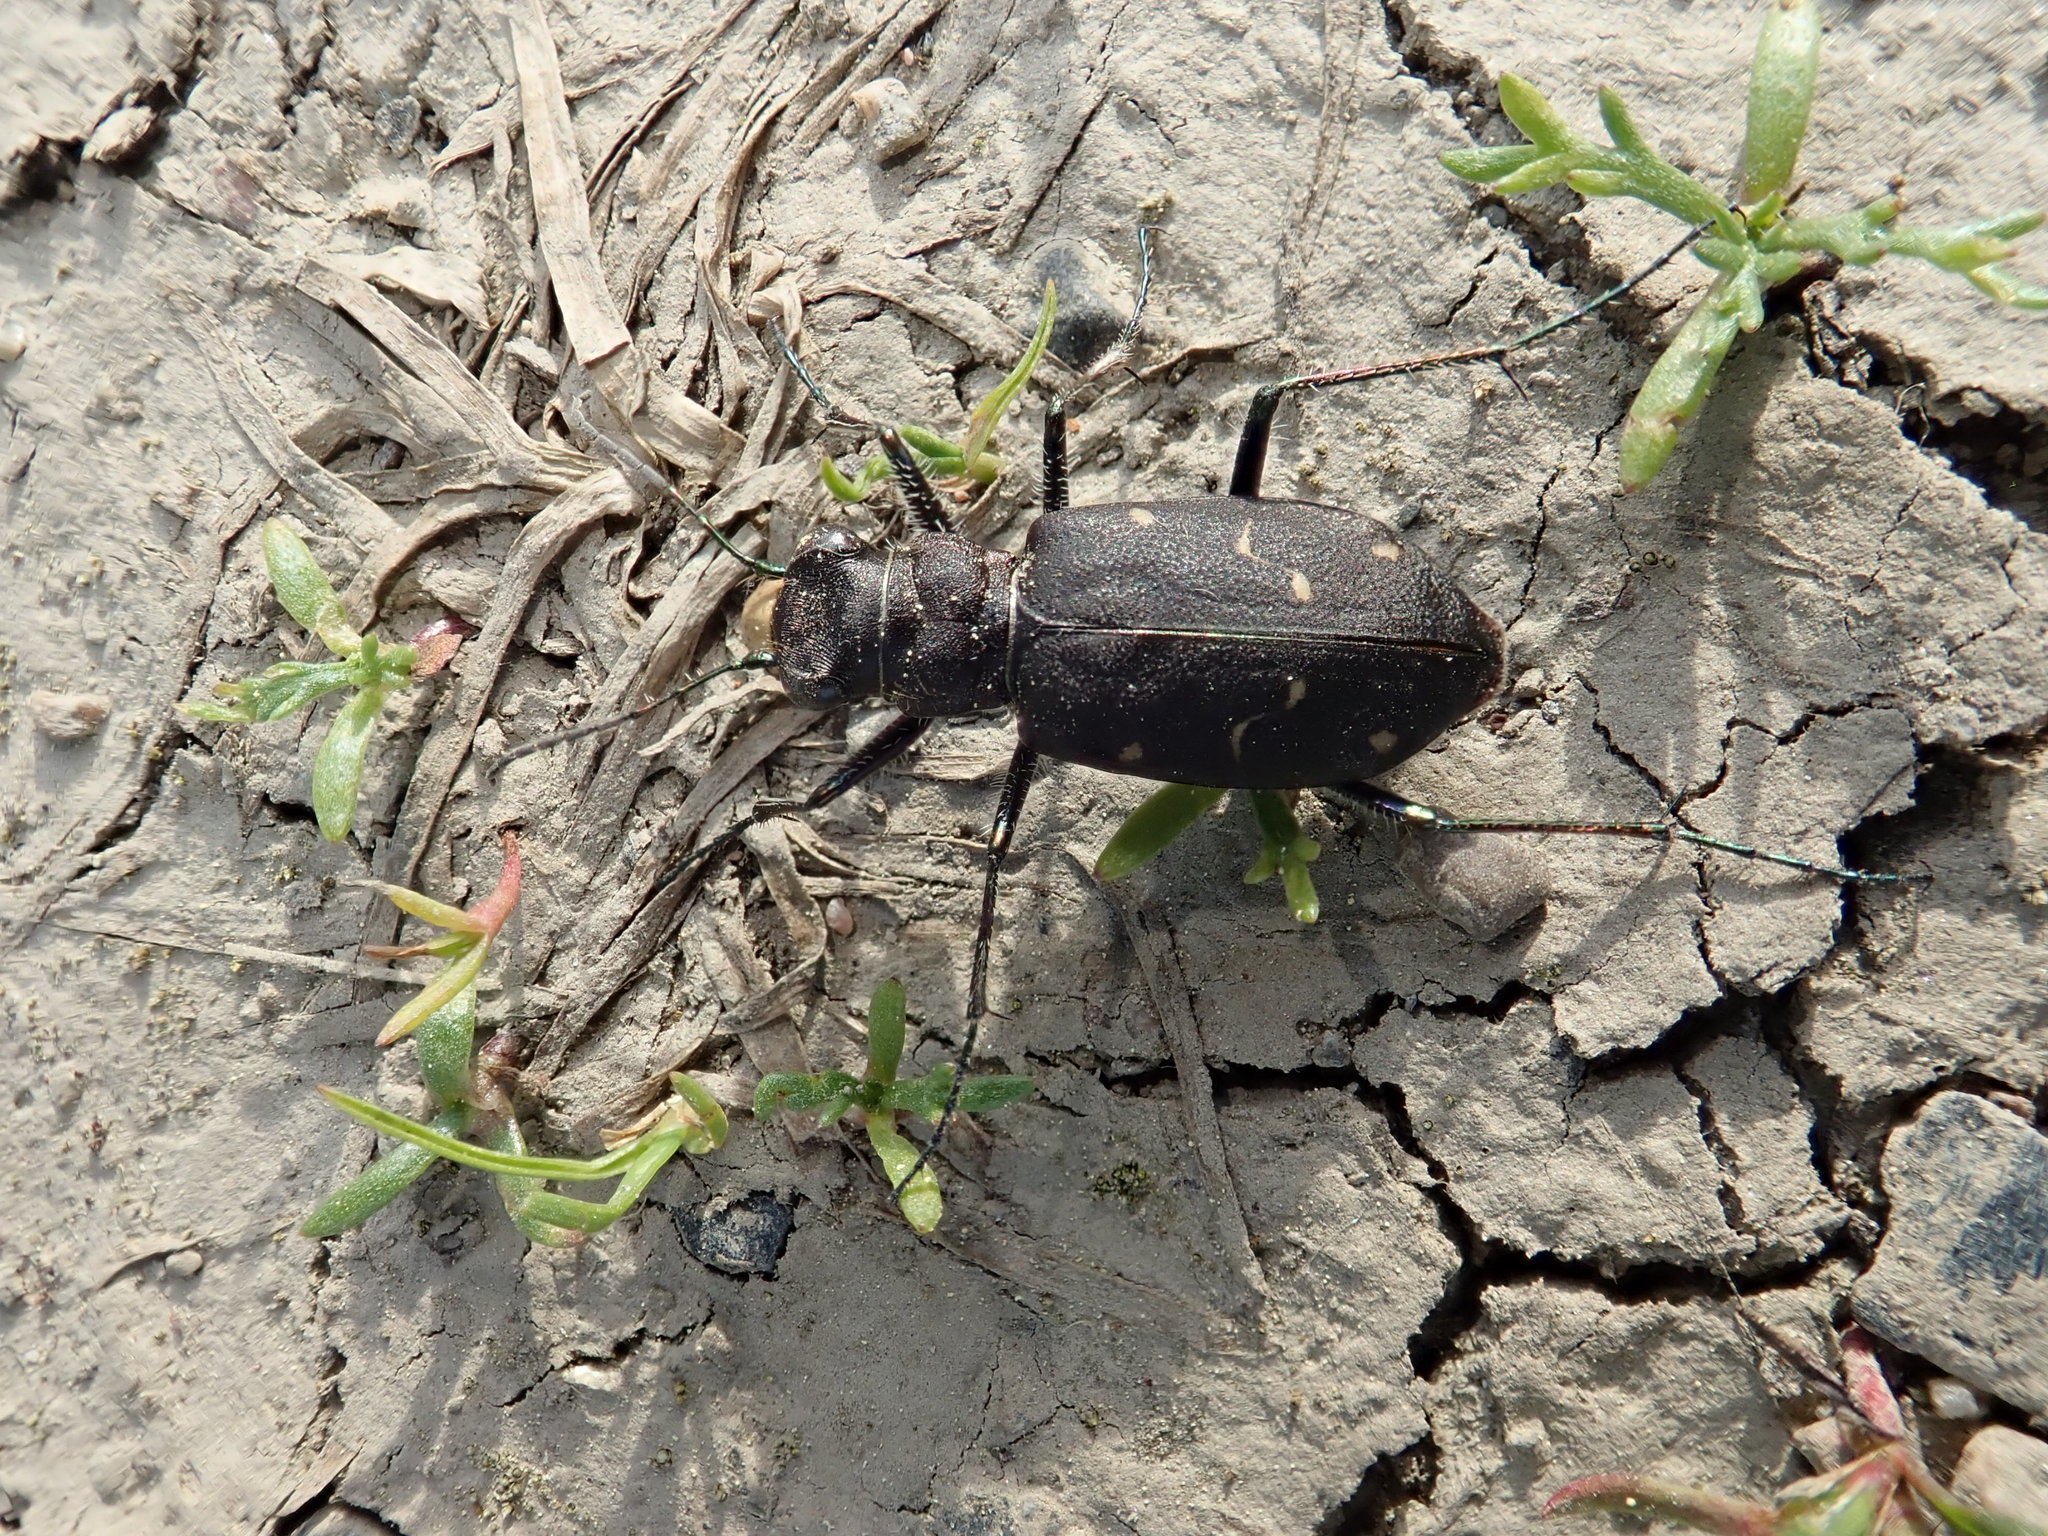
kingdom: Animalia
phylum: Arthropoda
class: Insecta
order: Coleoptera
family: Carabidae
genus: Cicindela
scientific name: Cicindela longilabris
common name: Boreal long-lipped tiger beetle
